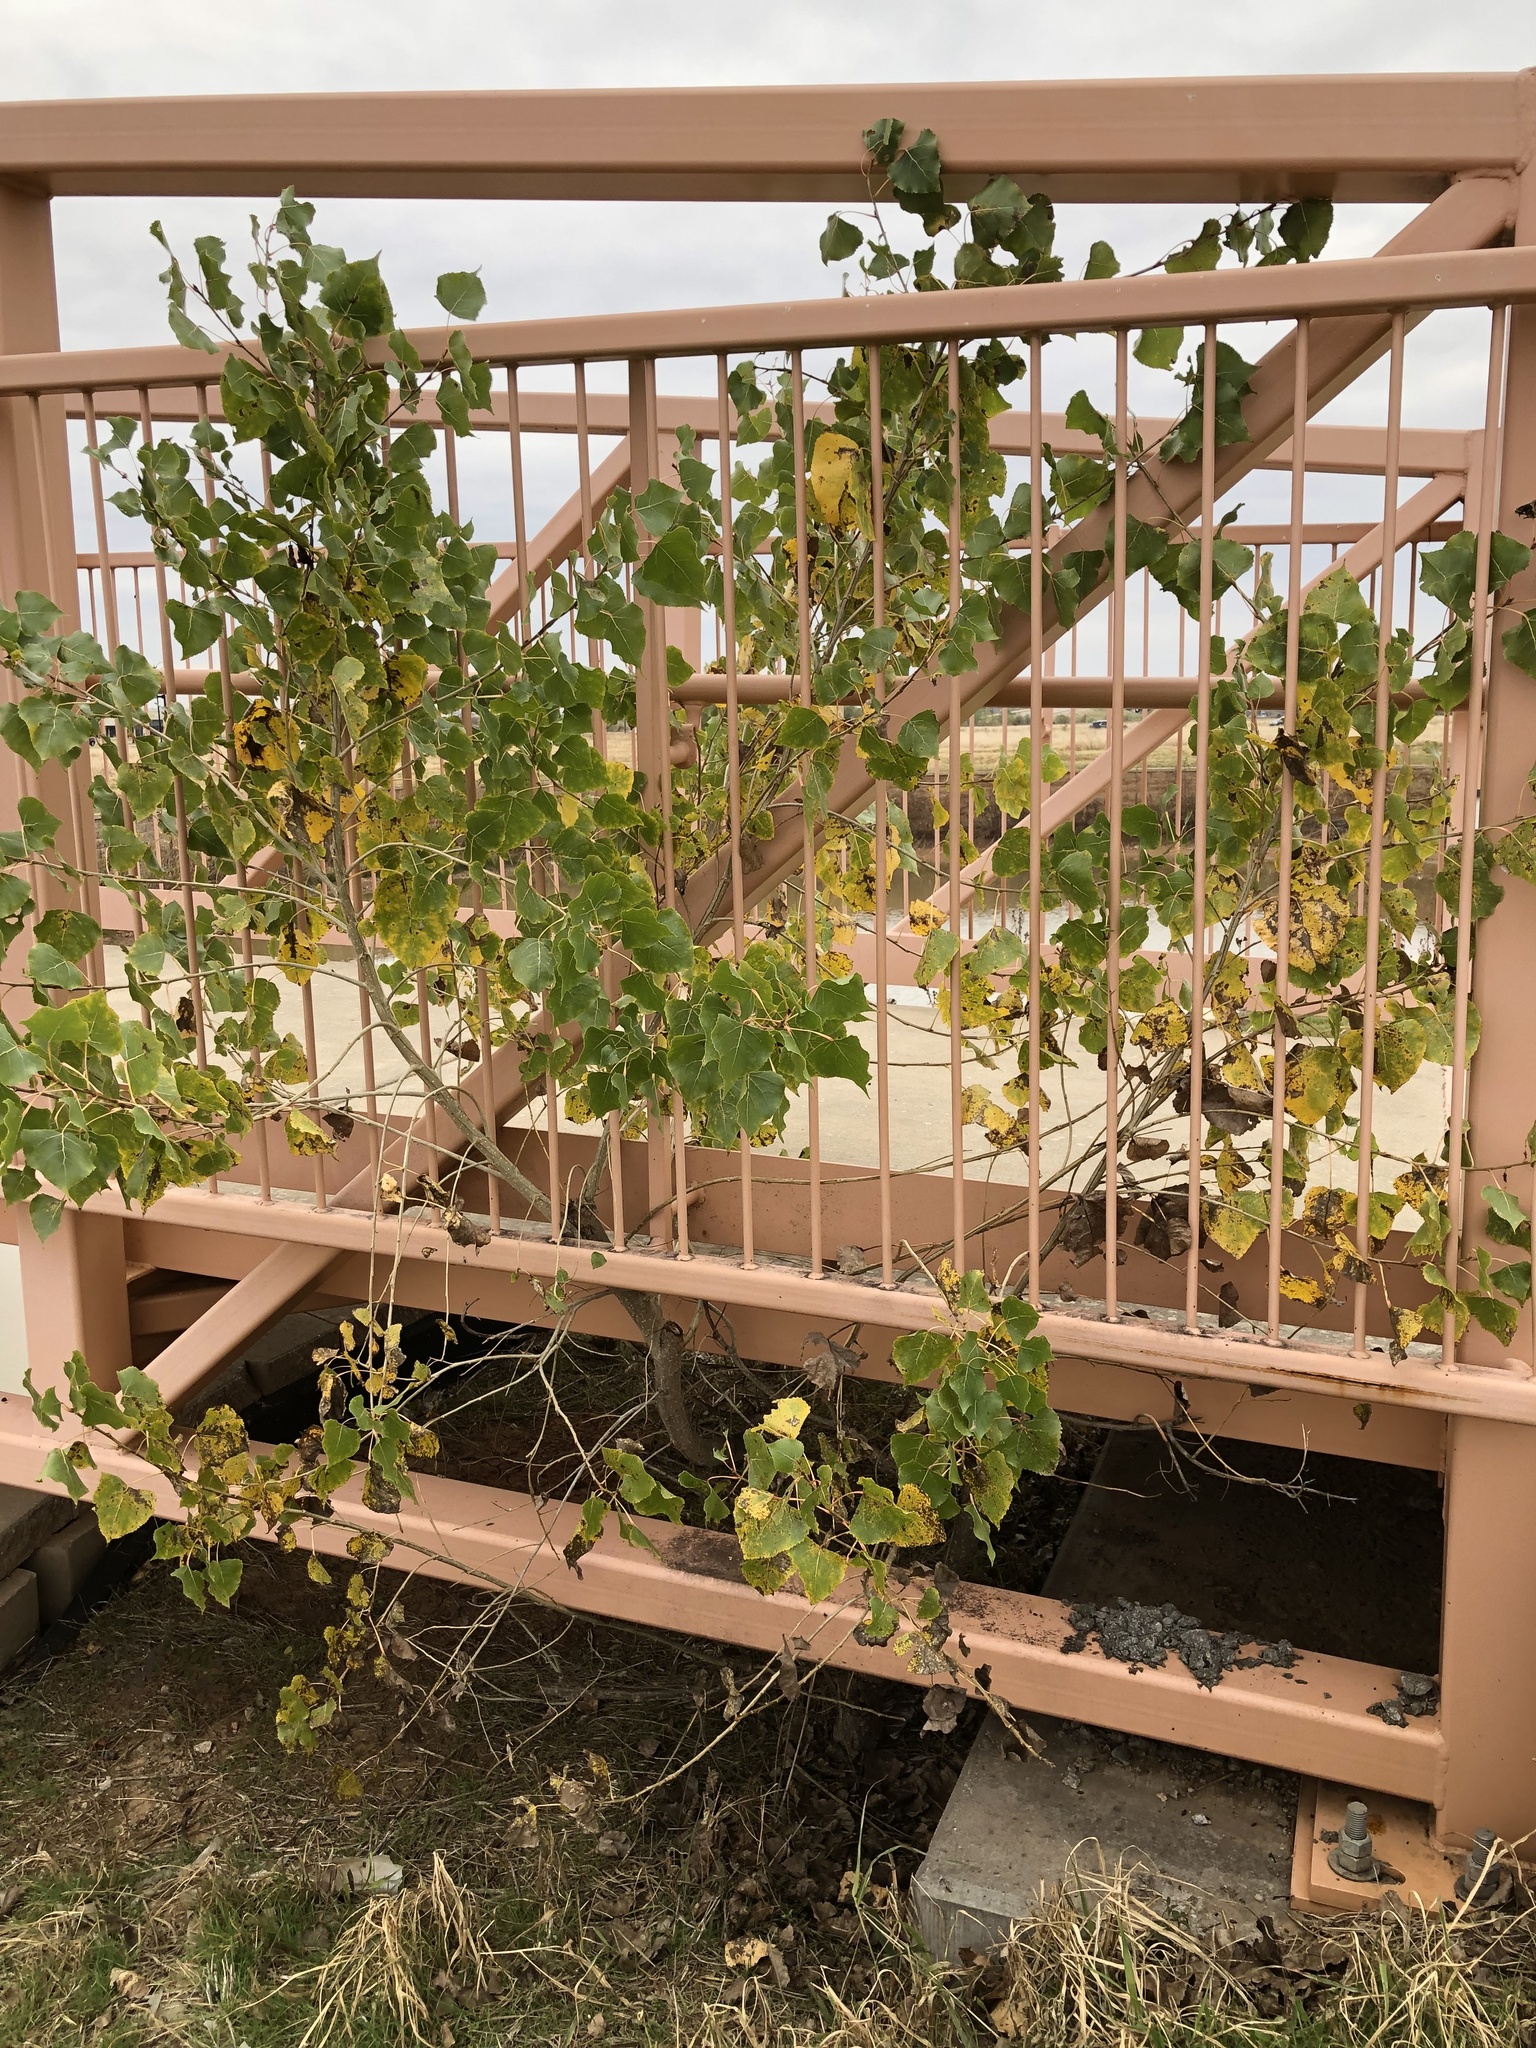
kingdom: Plantae
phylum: Tracheophyta
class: Magnoliopsida
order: Malpighiales
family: Salicaceae
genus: Populus
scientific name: Populus deltoides
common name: Eastern cottonwood
